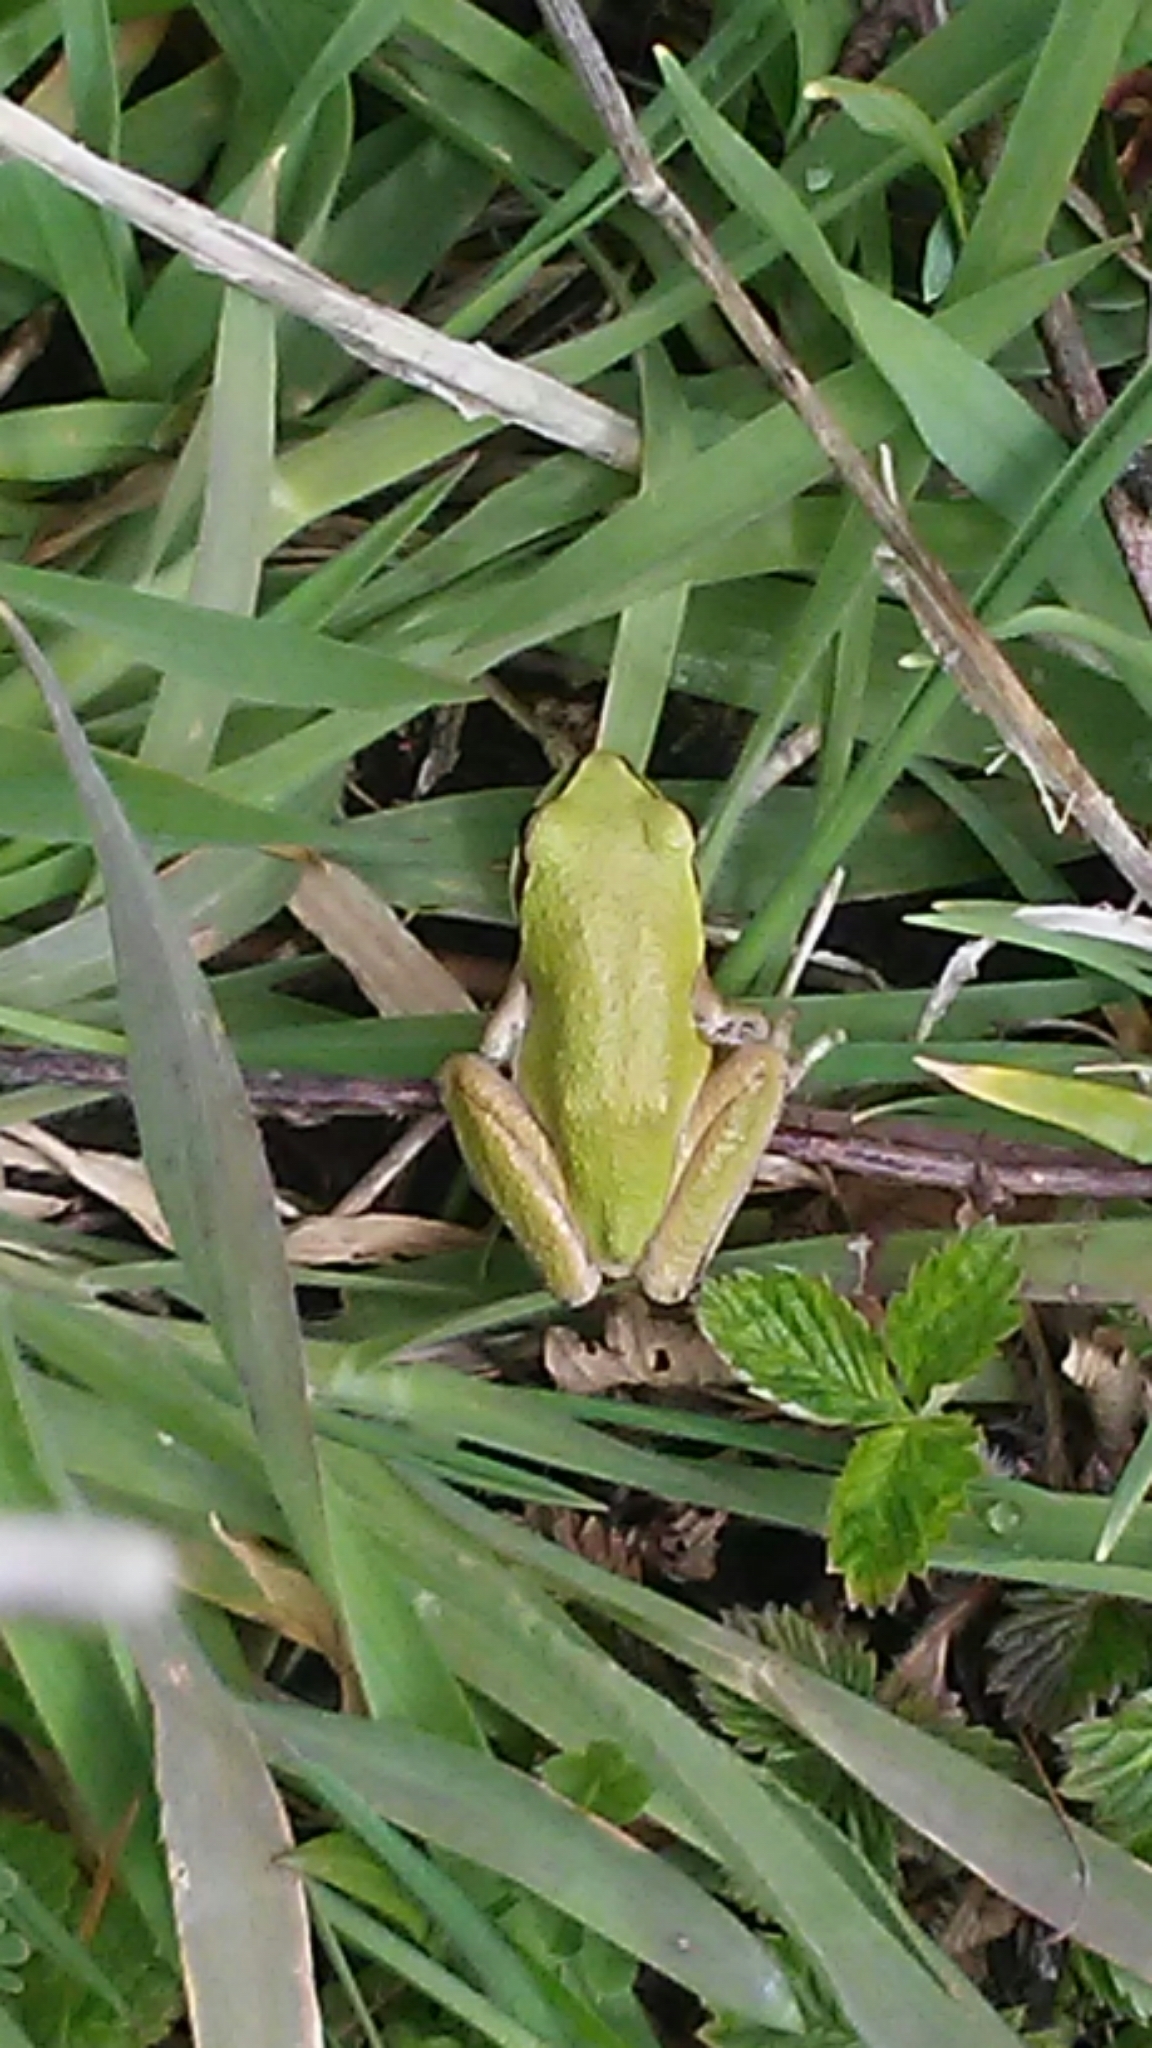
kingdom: Animalia
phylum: Chordata
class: Amphibia
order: Anura
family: Hylidae
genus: Pseudacris
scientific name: Pseudacris regilla
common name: Pacific chorus frog
